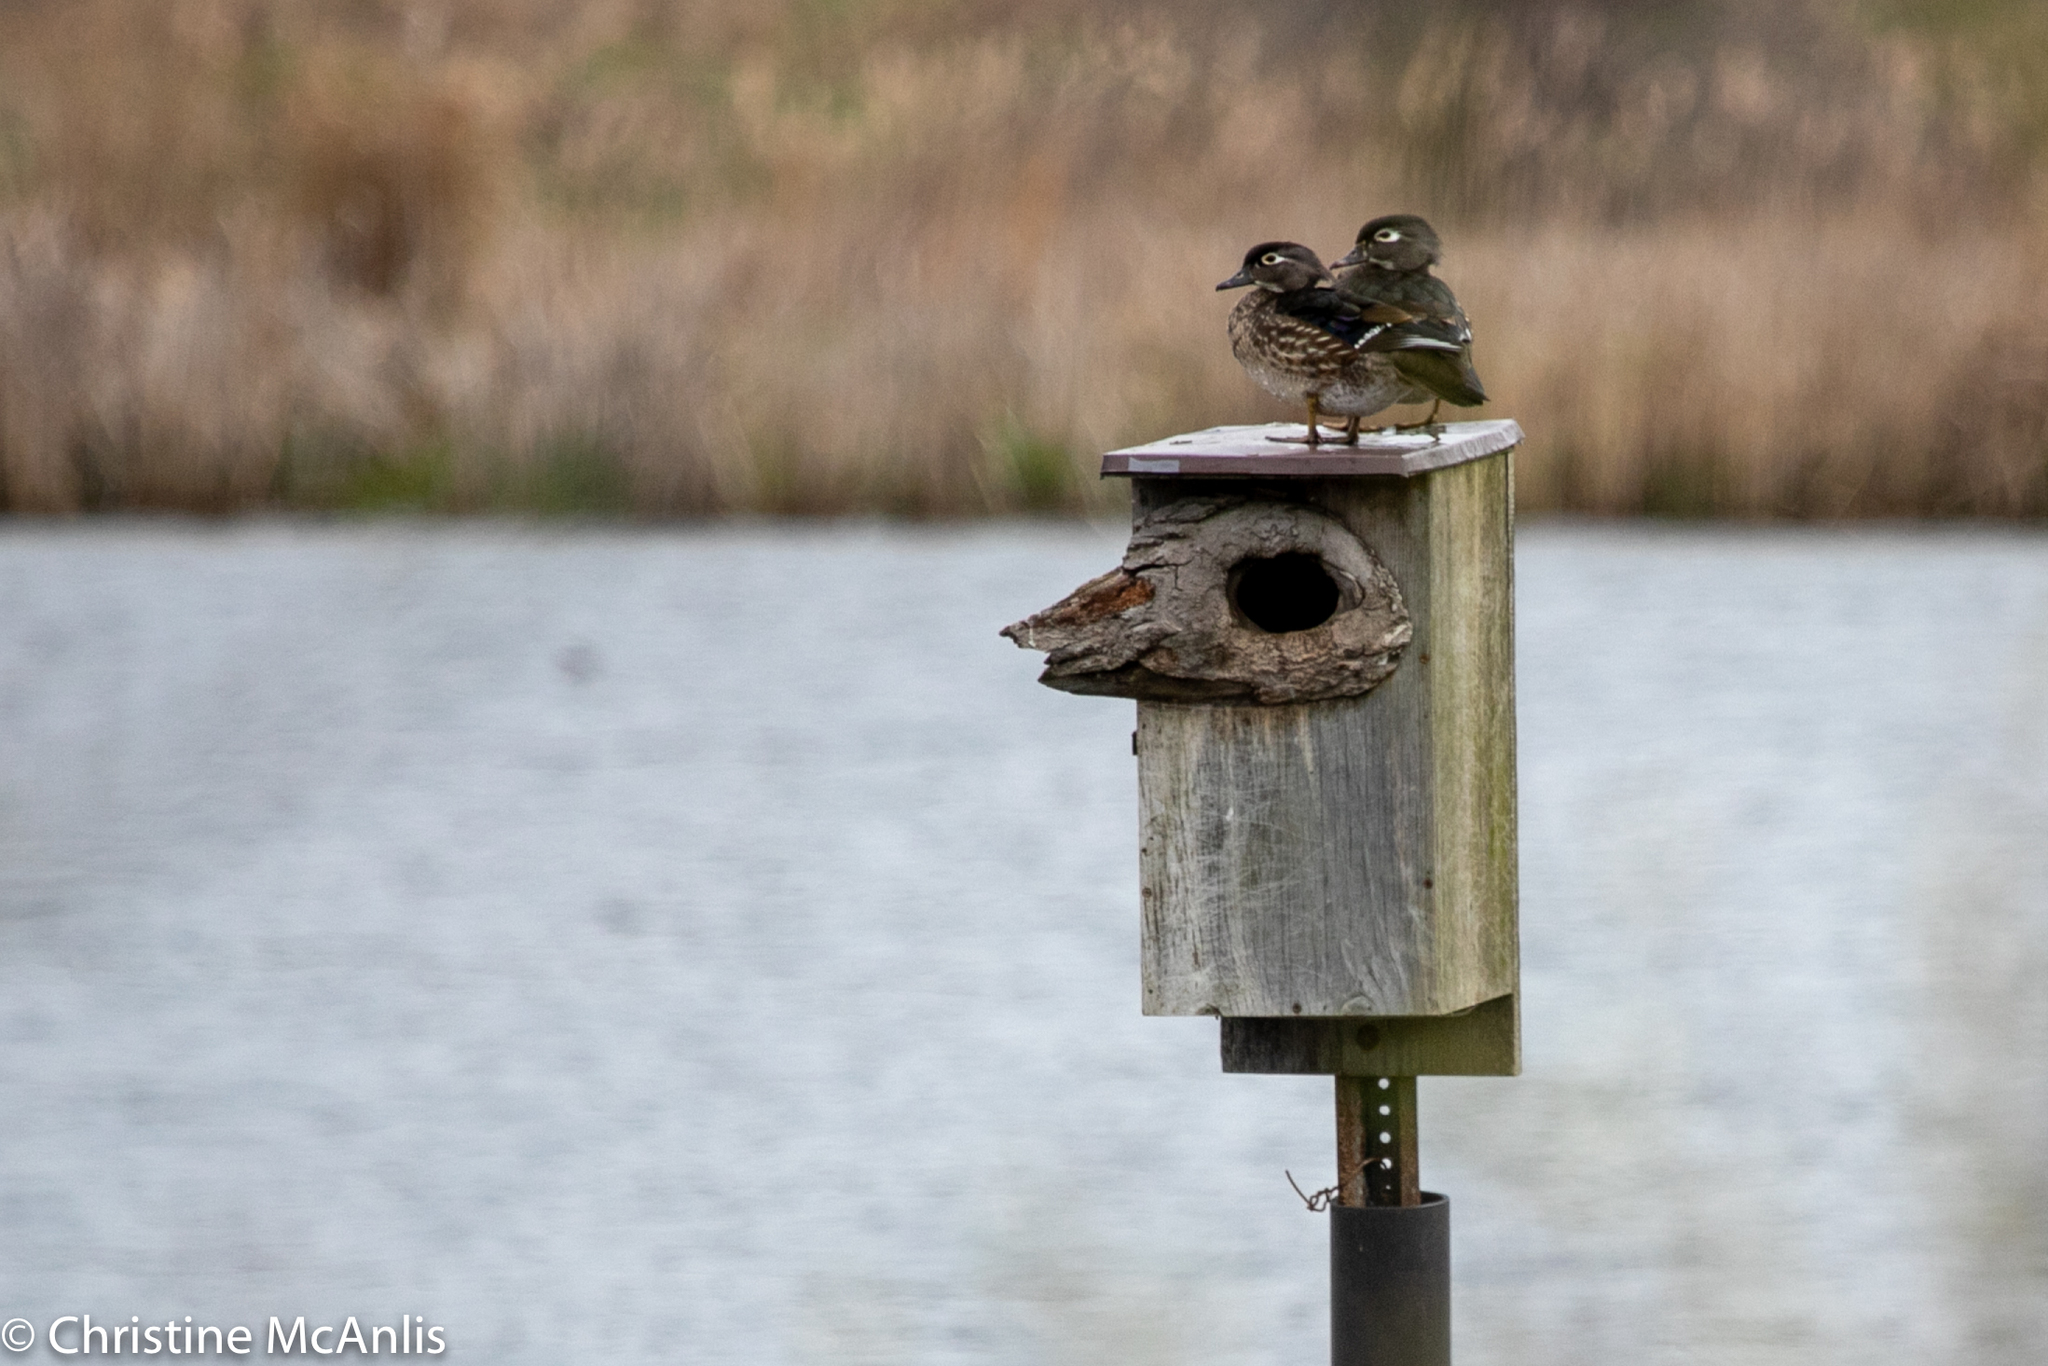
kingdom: Animalia
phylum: Chordata
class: Aves
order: Anseriformes
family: Anatidae
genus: Aix
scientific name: Aix sponsa
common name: Wood duck
